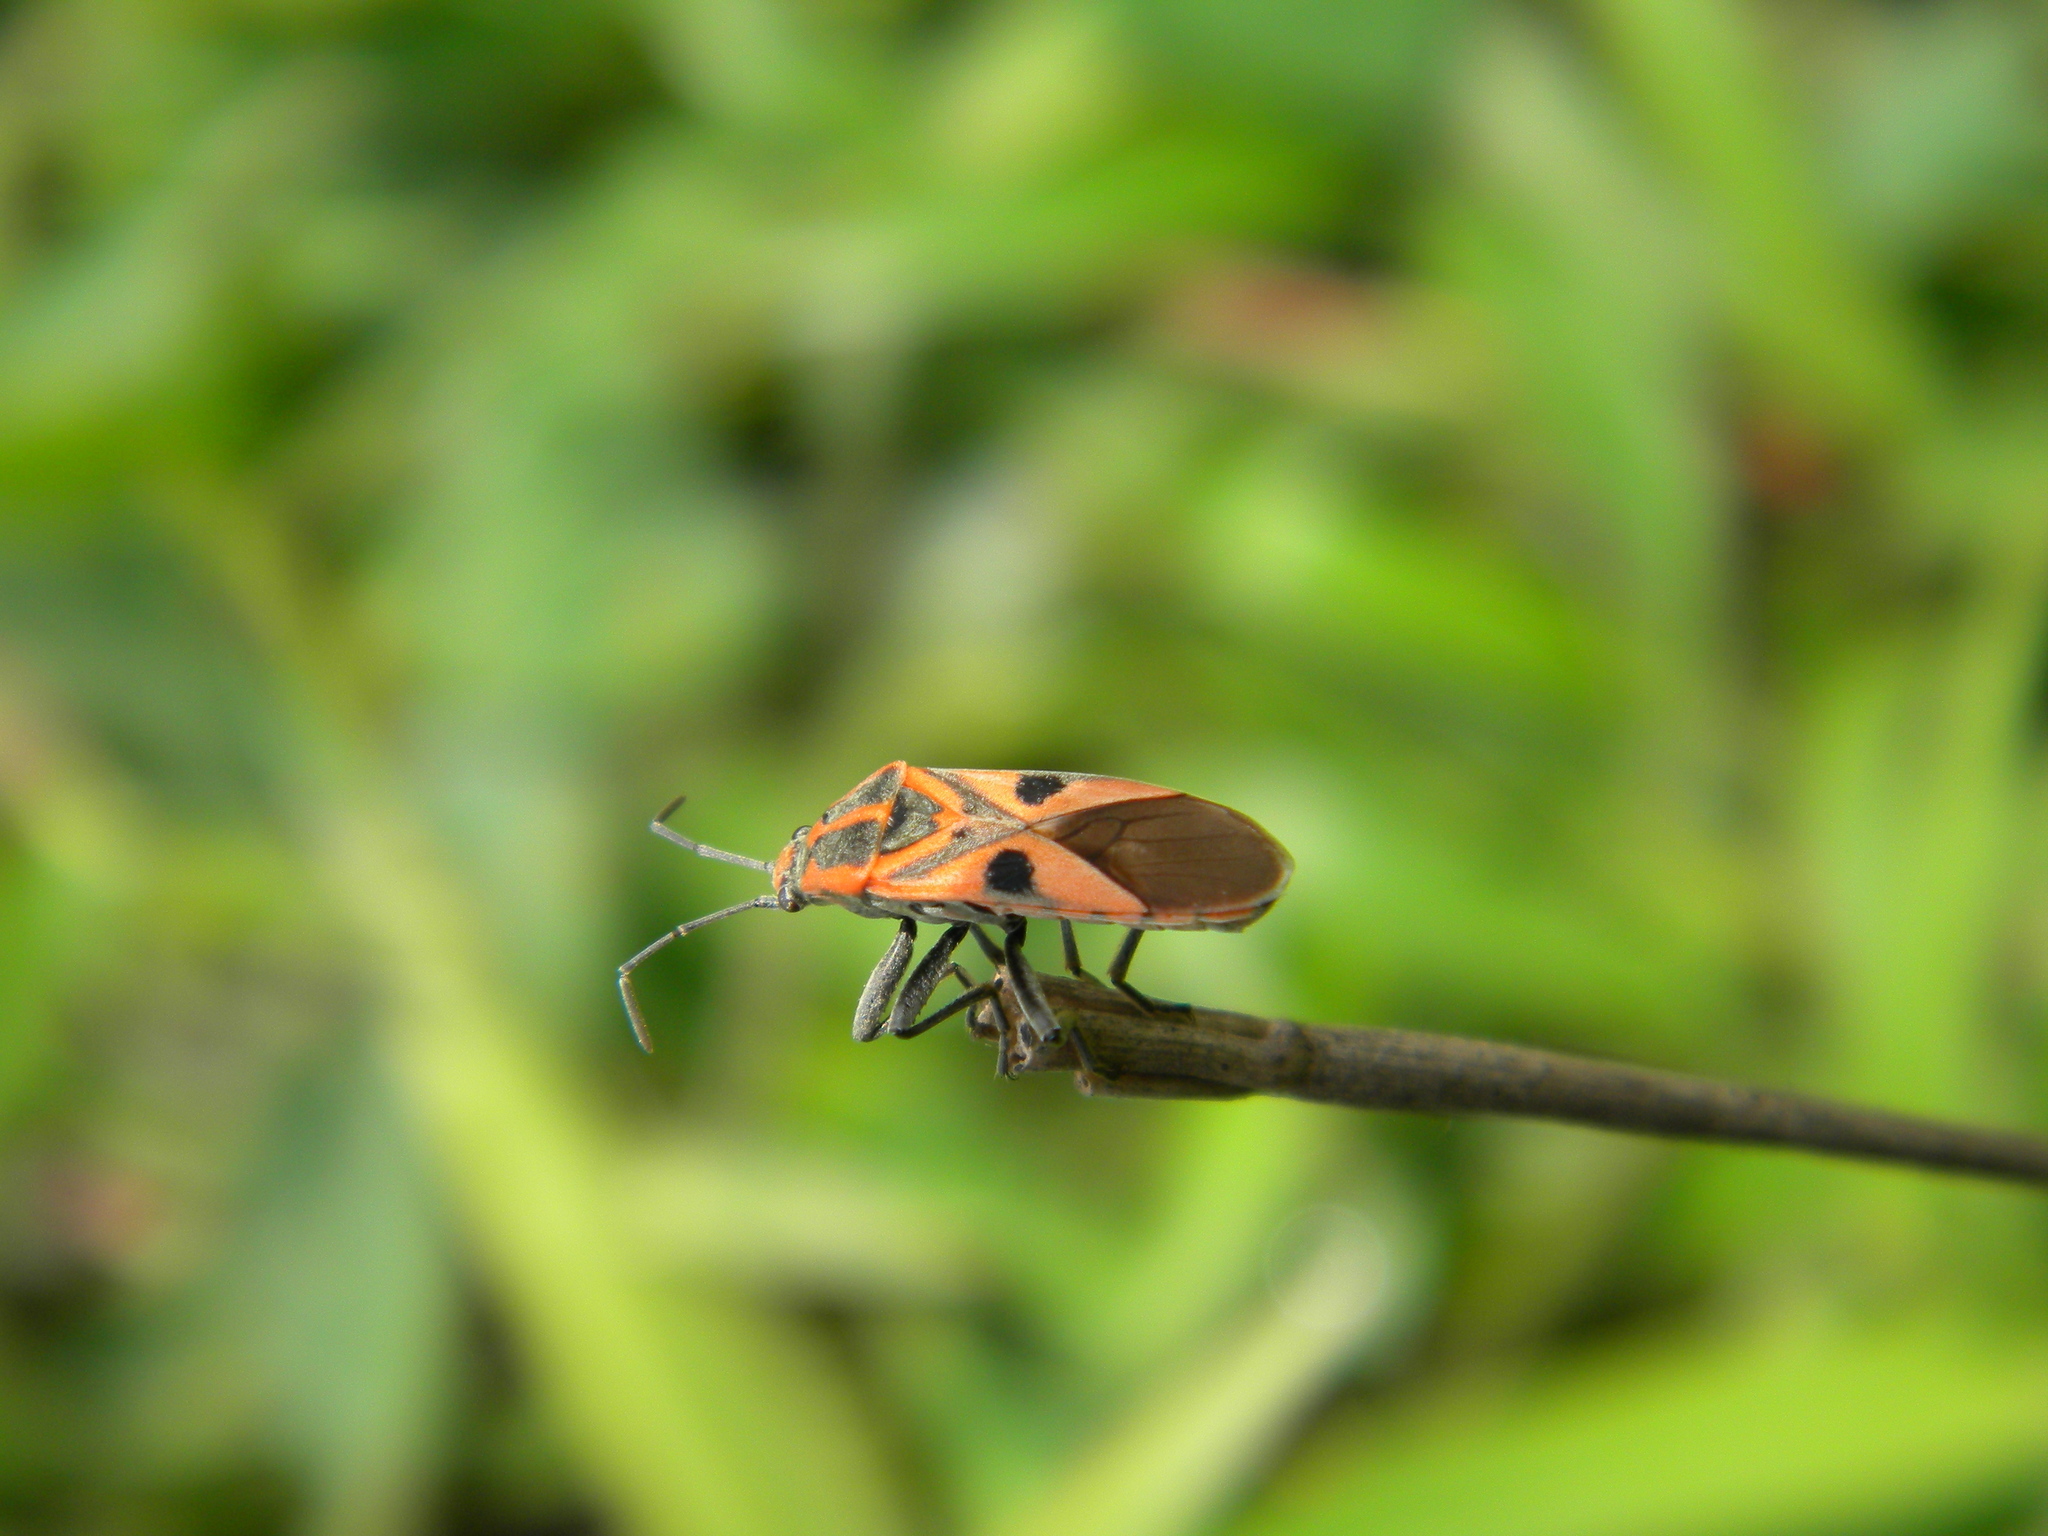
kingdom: Animalia
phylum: Arthropoda
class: Insecta
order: Hemiptera
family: Lygaeidae
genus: Spilostethus
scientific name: Spilostethus hospes
